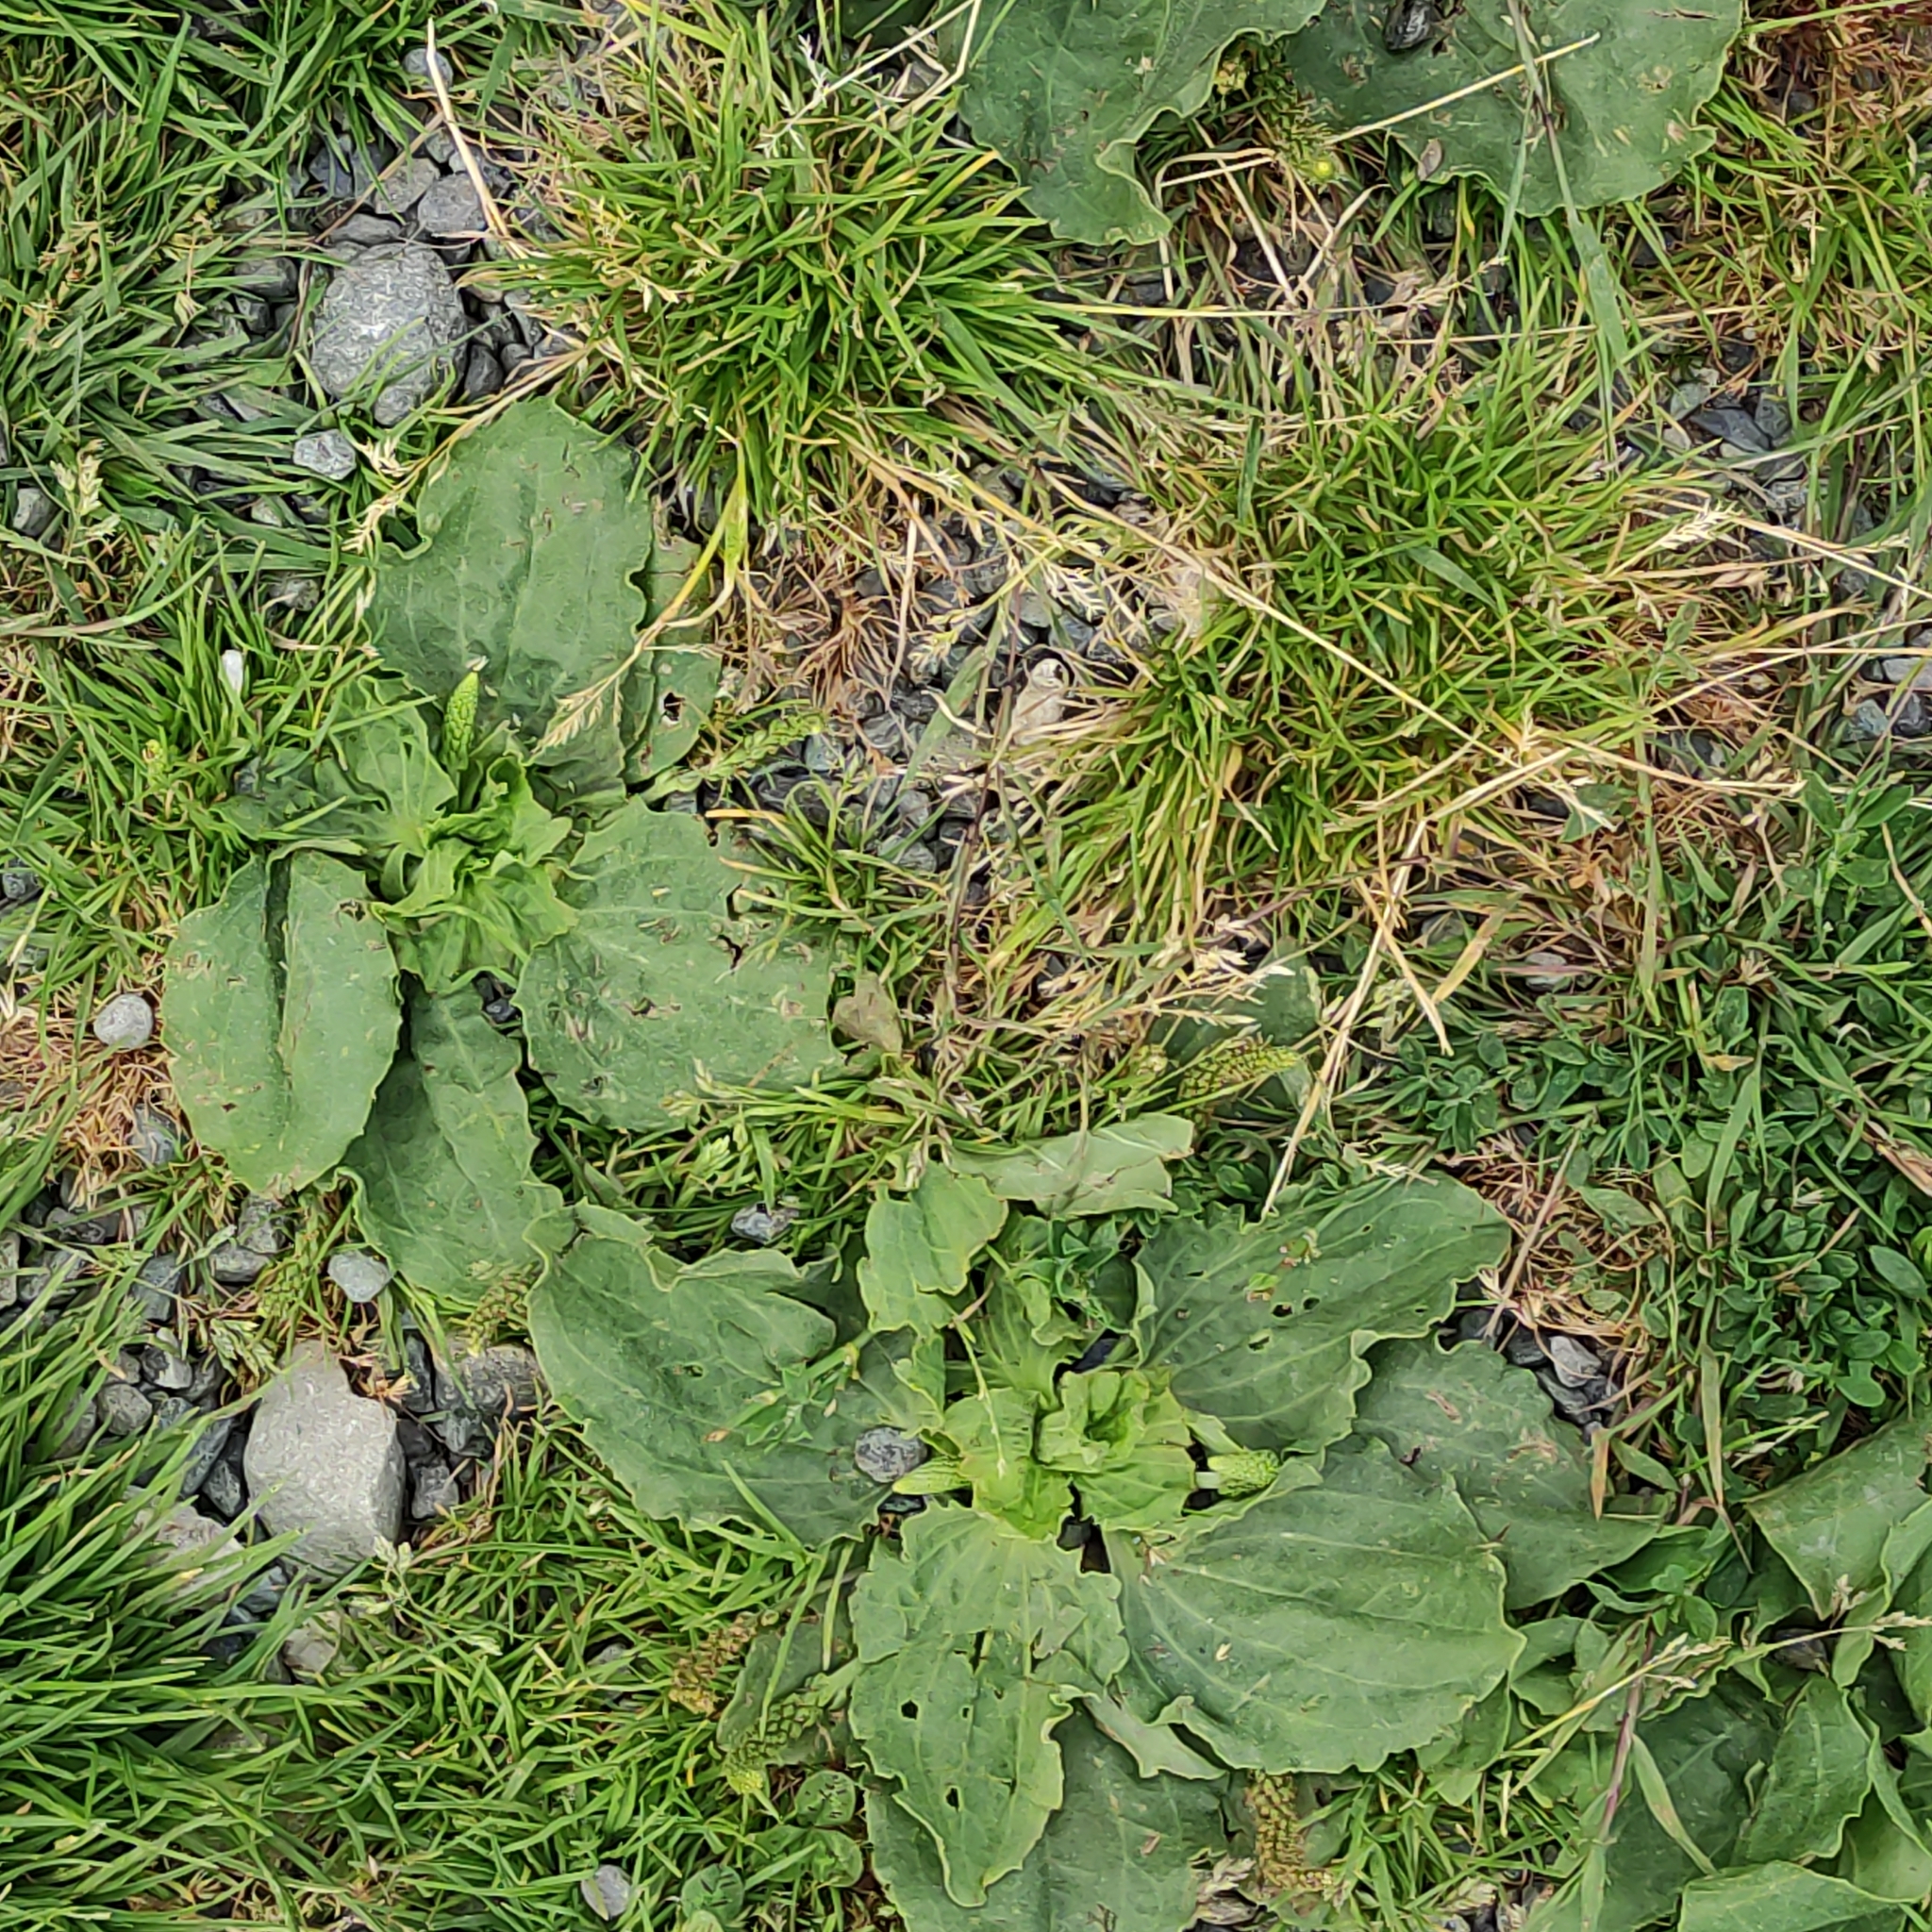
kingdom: Plantae
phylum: Tracheophyta
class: Magnoliopsida
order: Lamiales
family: Plantaginaceae
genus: Plantago
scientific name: Plantago major
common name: Common plantain
